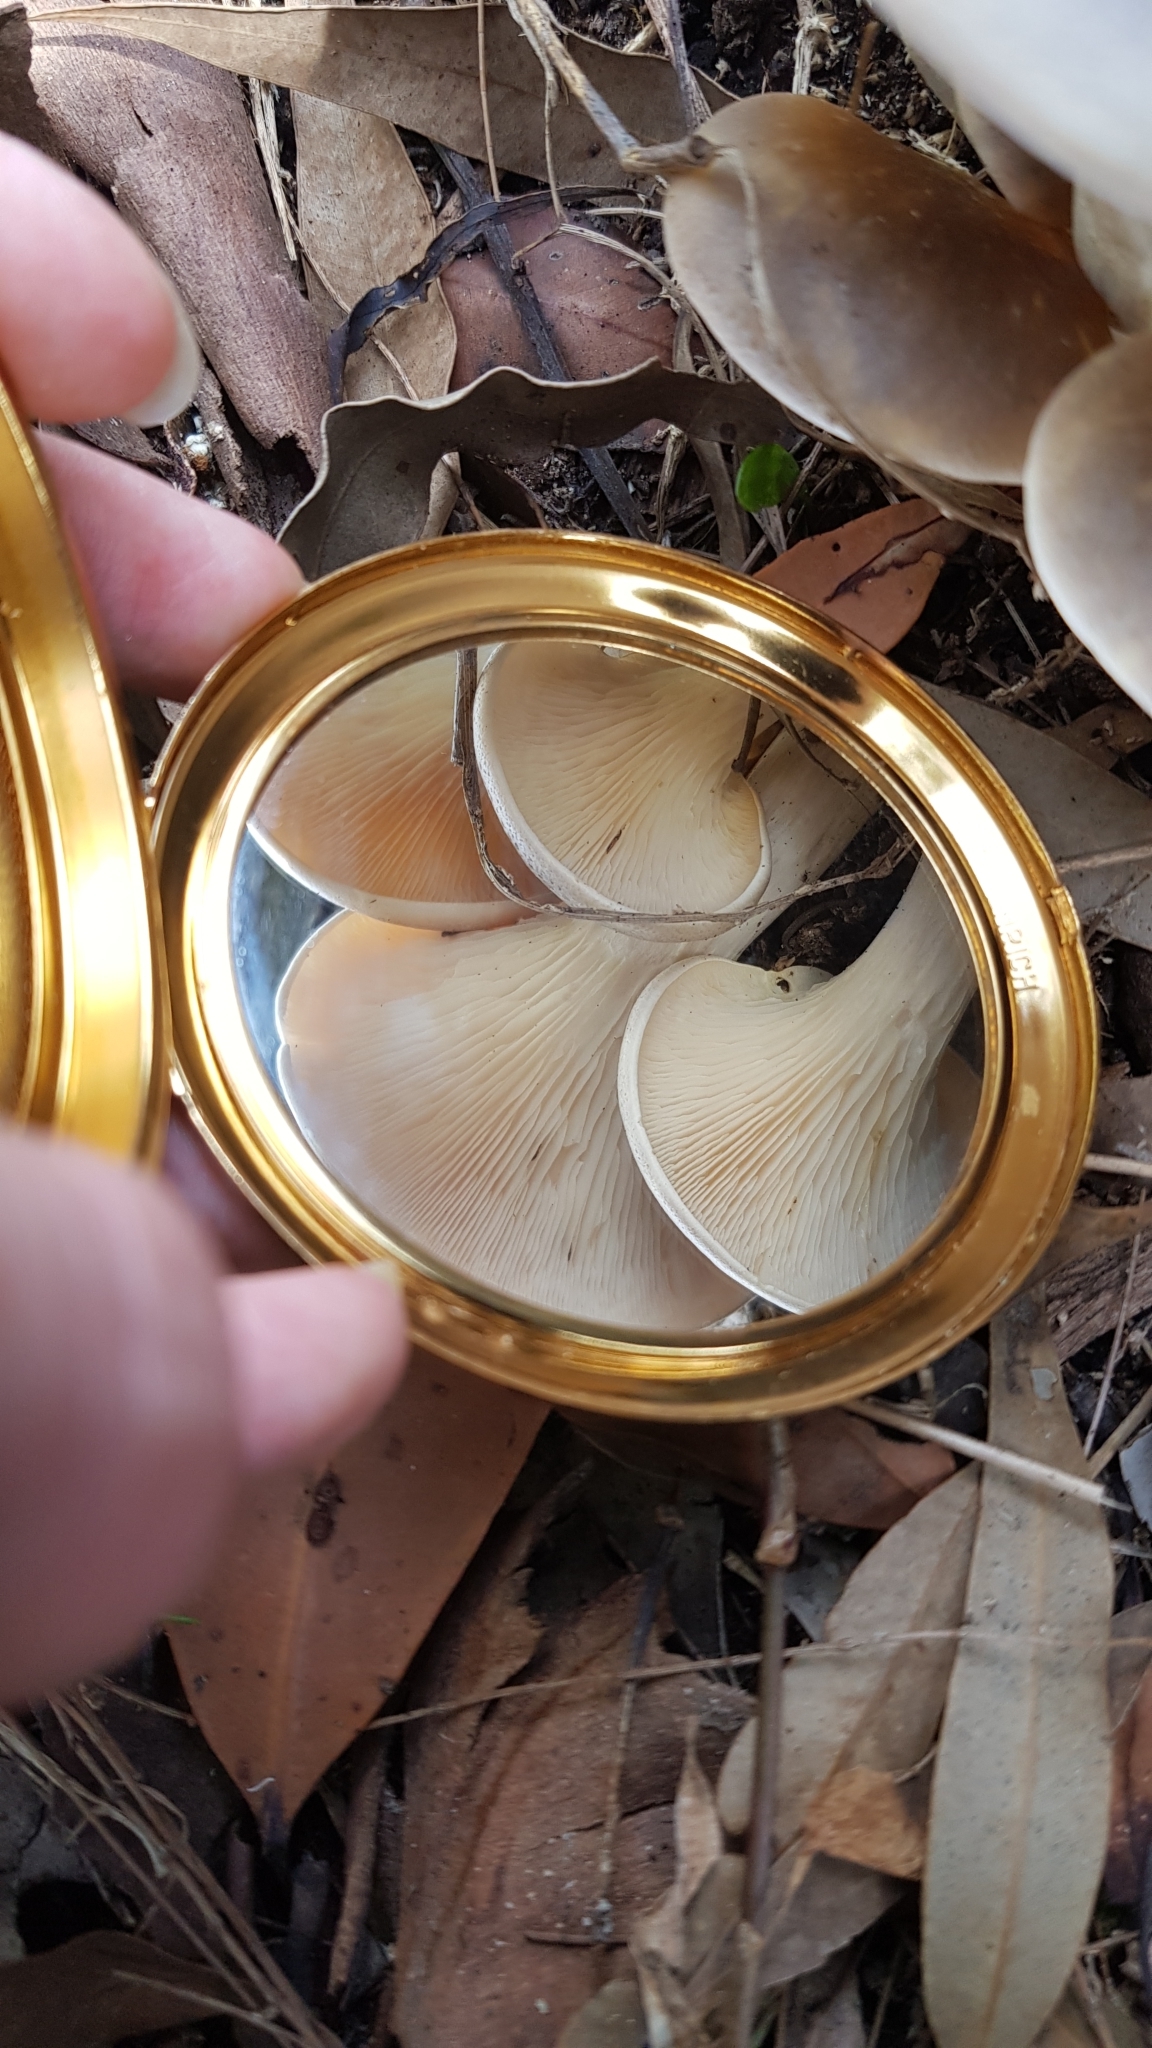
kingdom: Fungi
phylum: Basidiomycota
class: Agaricomycetes
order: Agaricales
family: Omphalotaceae
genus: Omphalotus
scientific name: Omphalotus nidiformis
